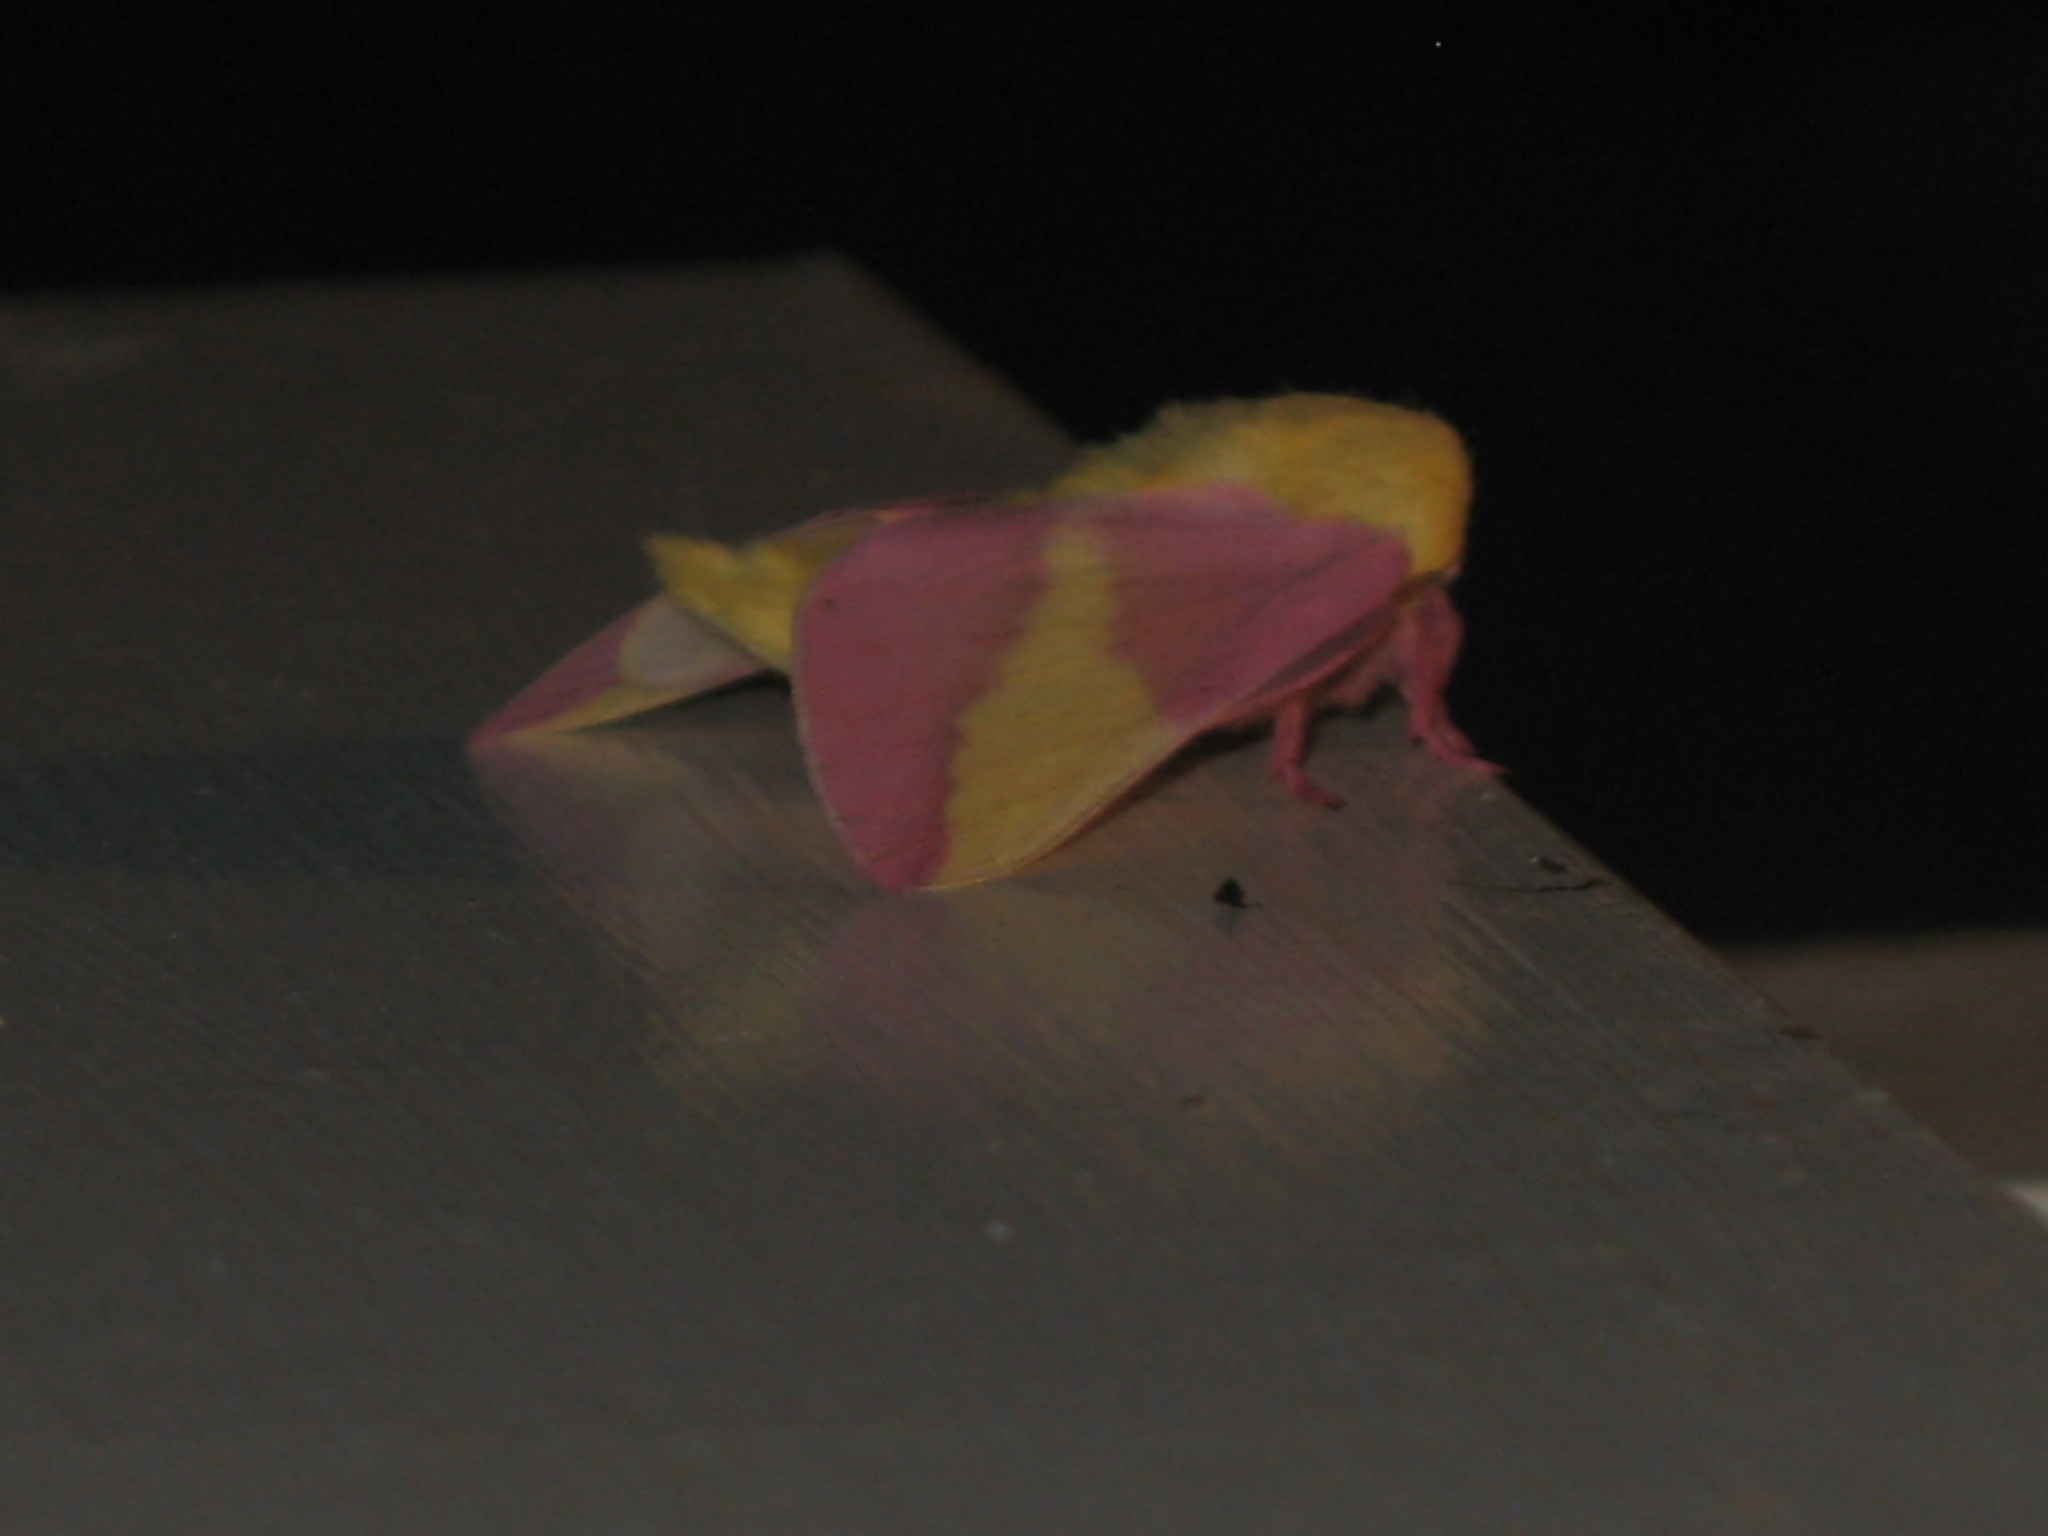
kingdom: Animalia
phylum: Arthropoda
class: Insecta
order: Lepidoptera
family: Saturniidae
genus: Dryocampa
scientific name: Dryocampa rubicunda
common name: Rosy maple moth
